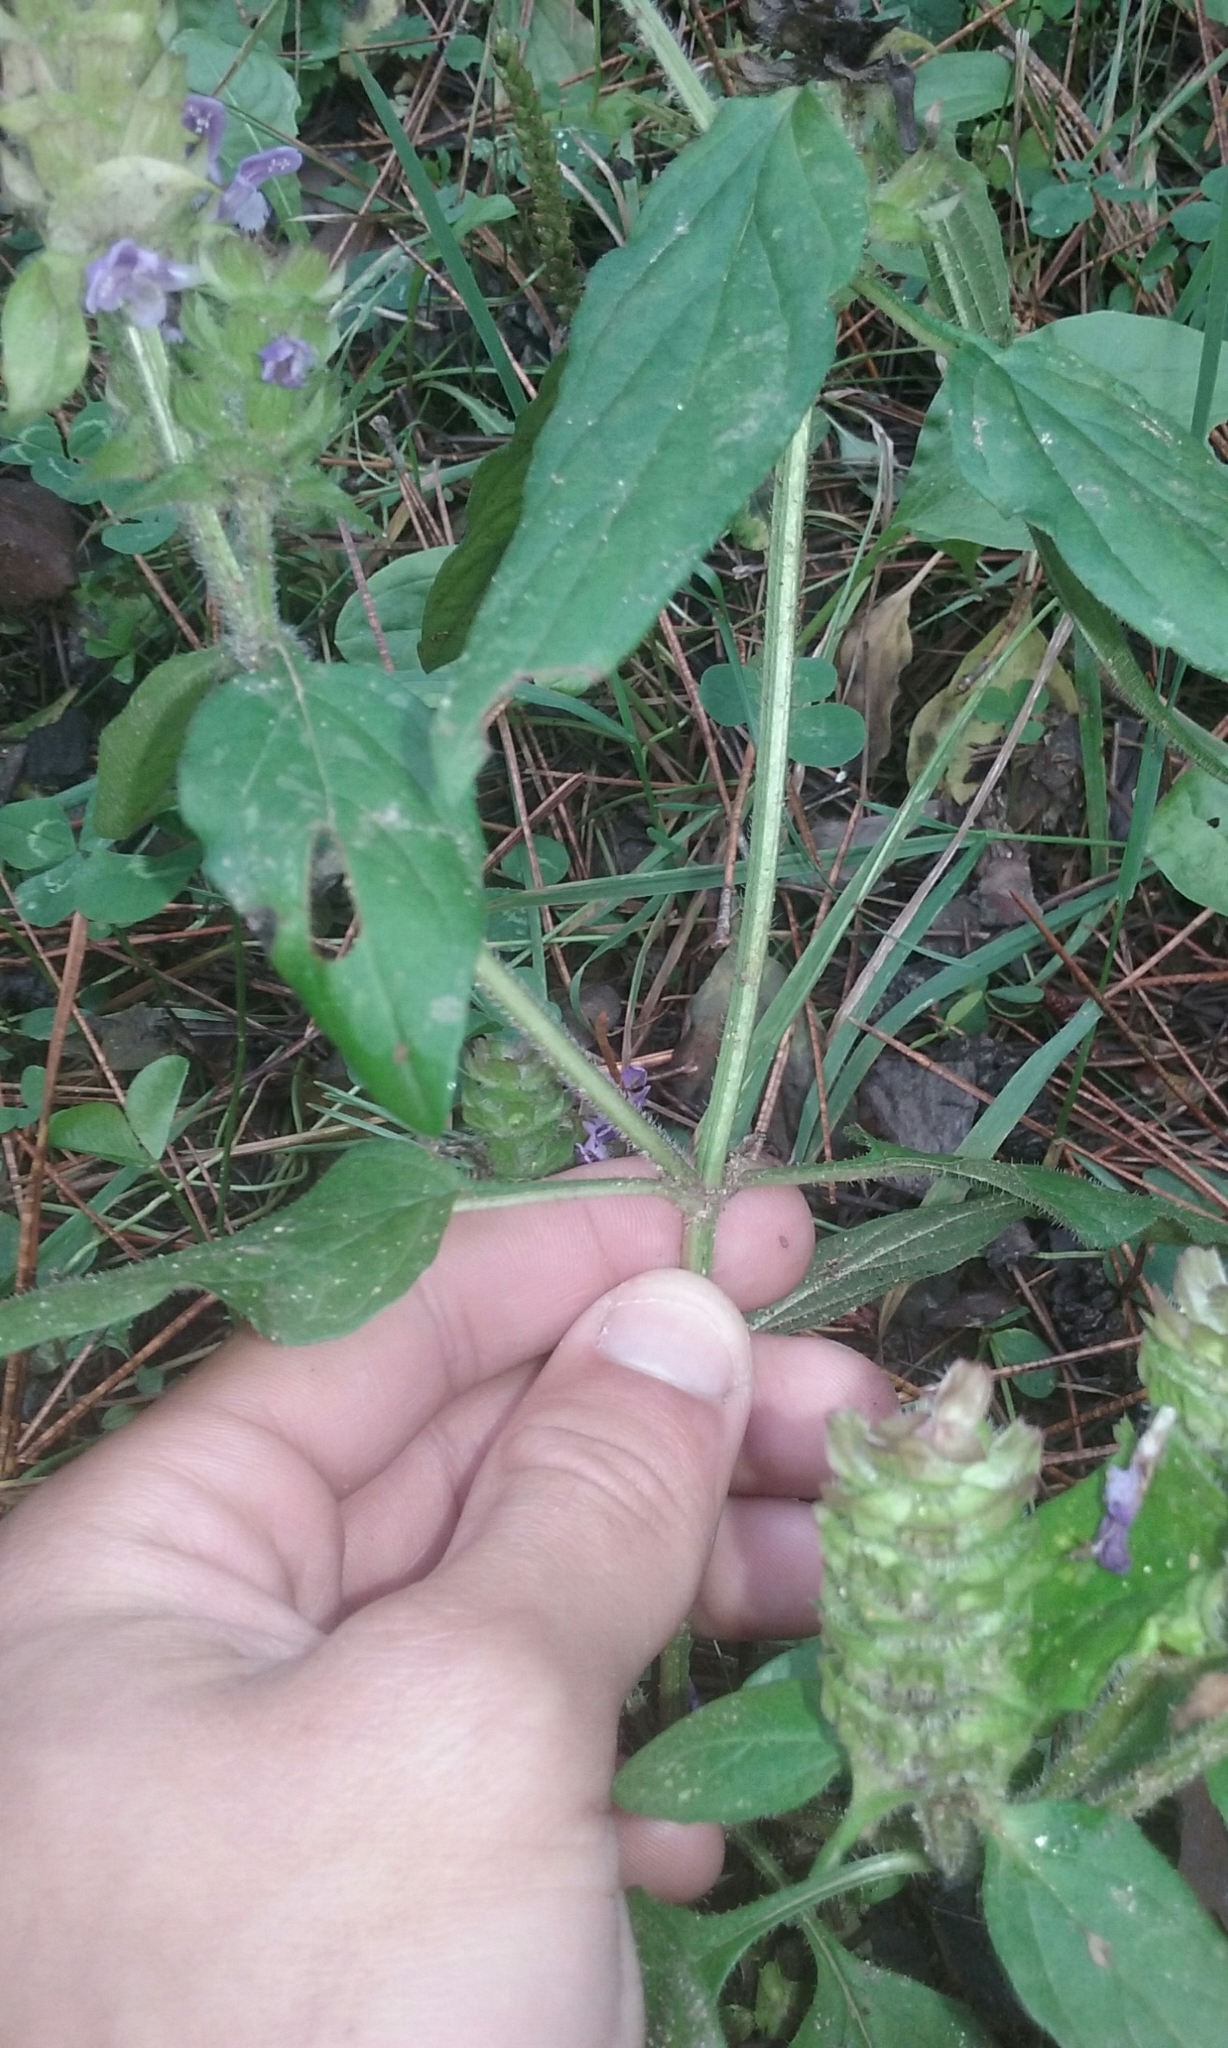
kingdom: Plantae
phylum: Tracheophyta
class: Magnoliopsida
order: Lamiales
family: Lamiaceae
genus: Prunella
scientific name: Prunella vulgaris
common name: Heal-all
